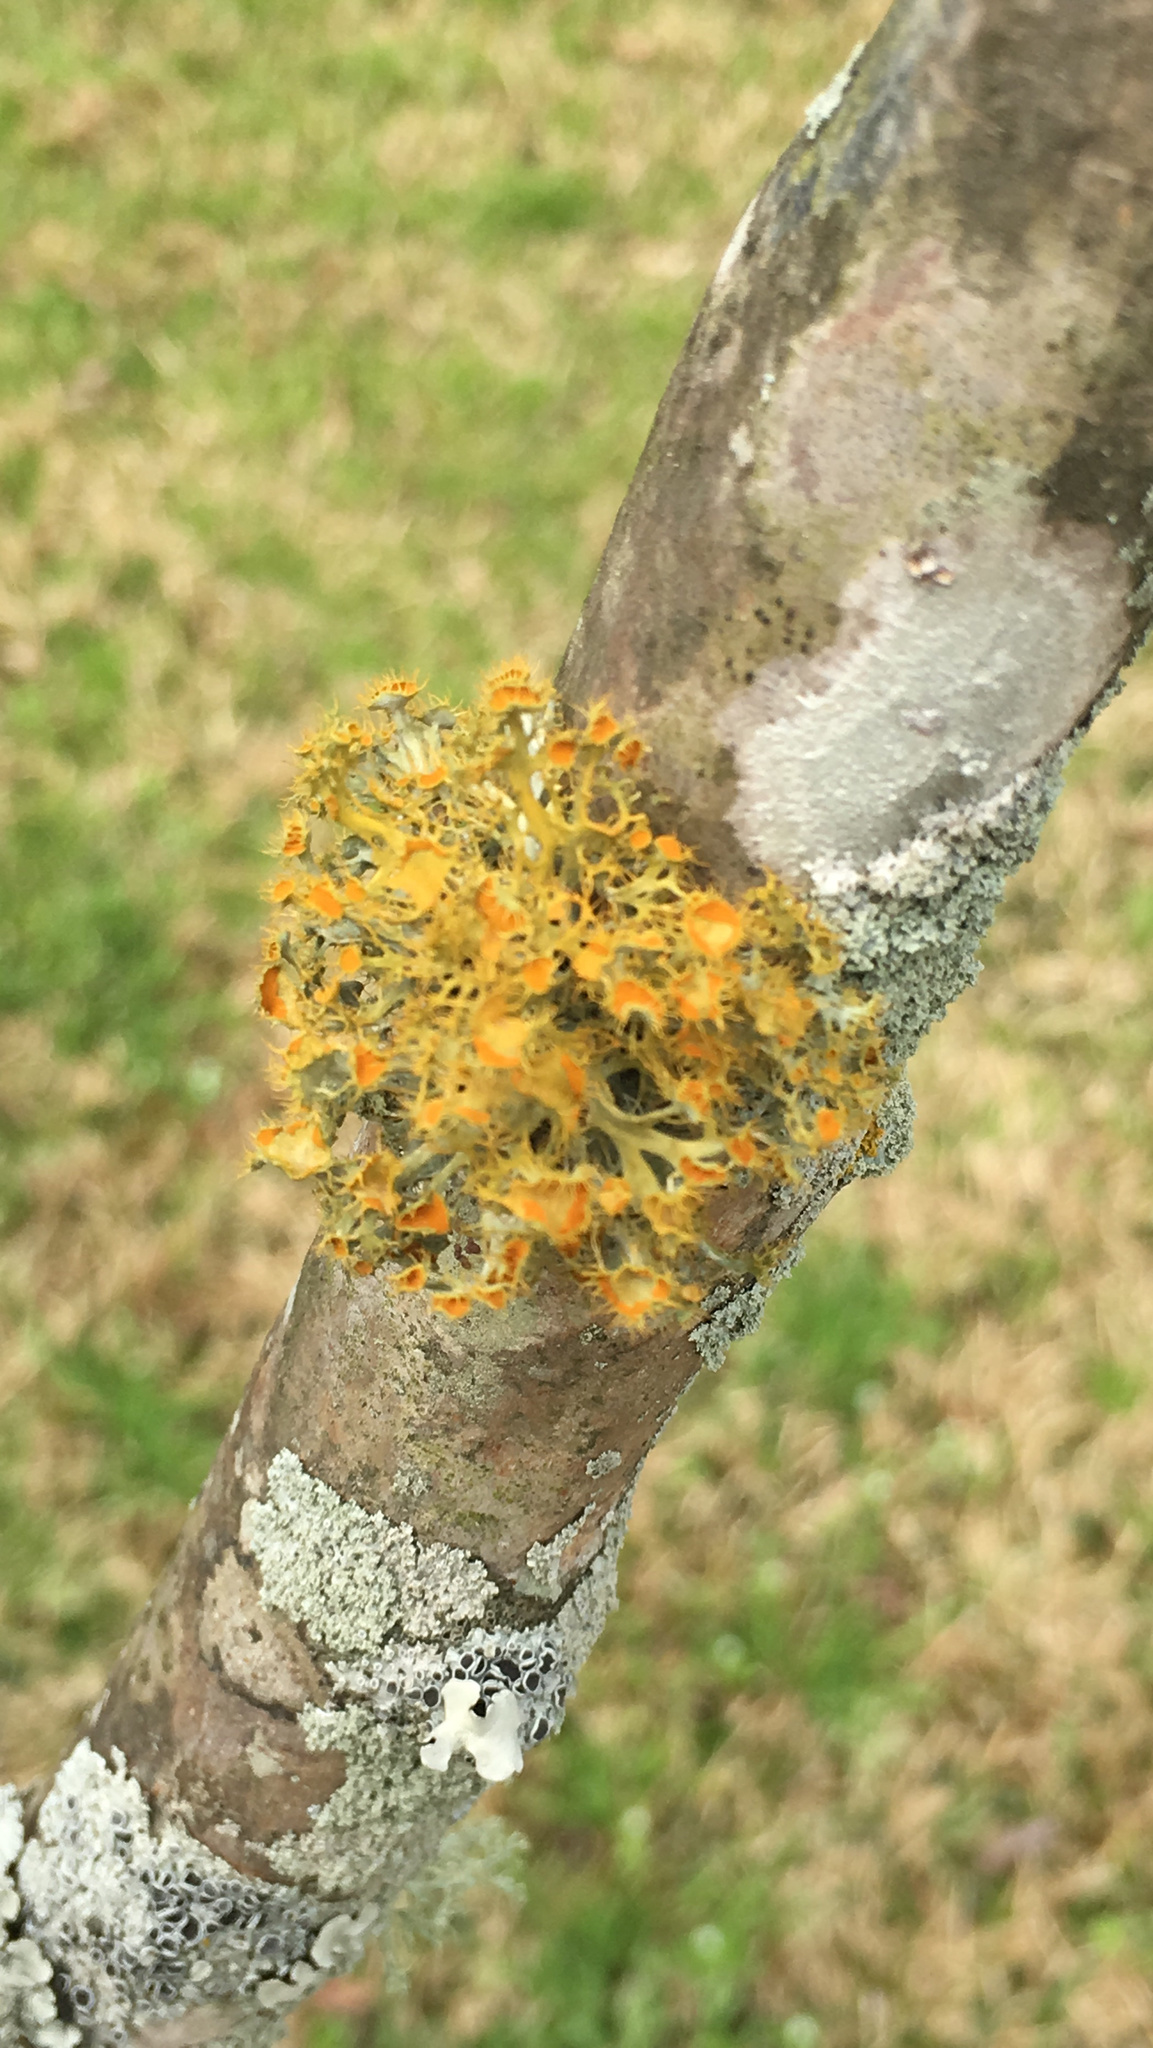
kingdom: Fungi
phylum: Ascomycota
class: Lecanoromycetes
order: Teloschistales
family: Teloschistaceae
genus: Niorma
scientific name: Niorma chrysophthalma
